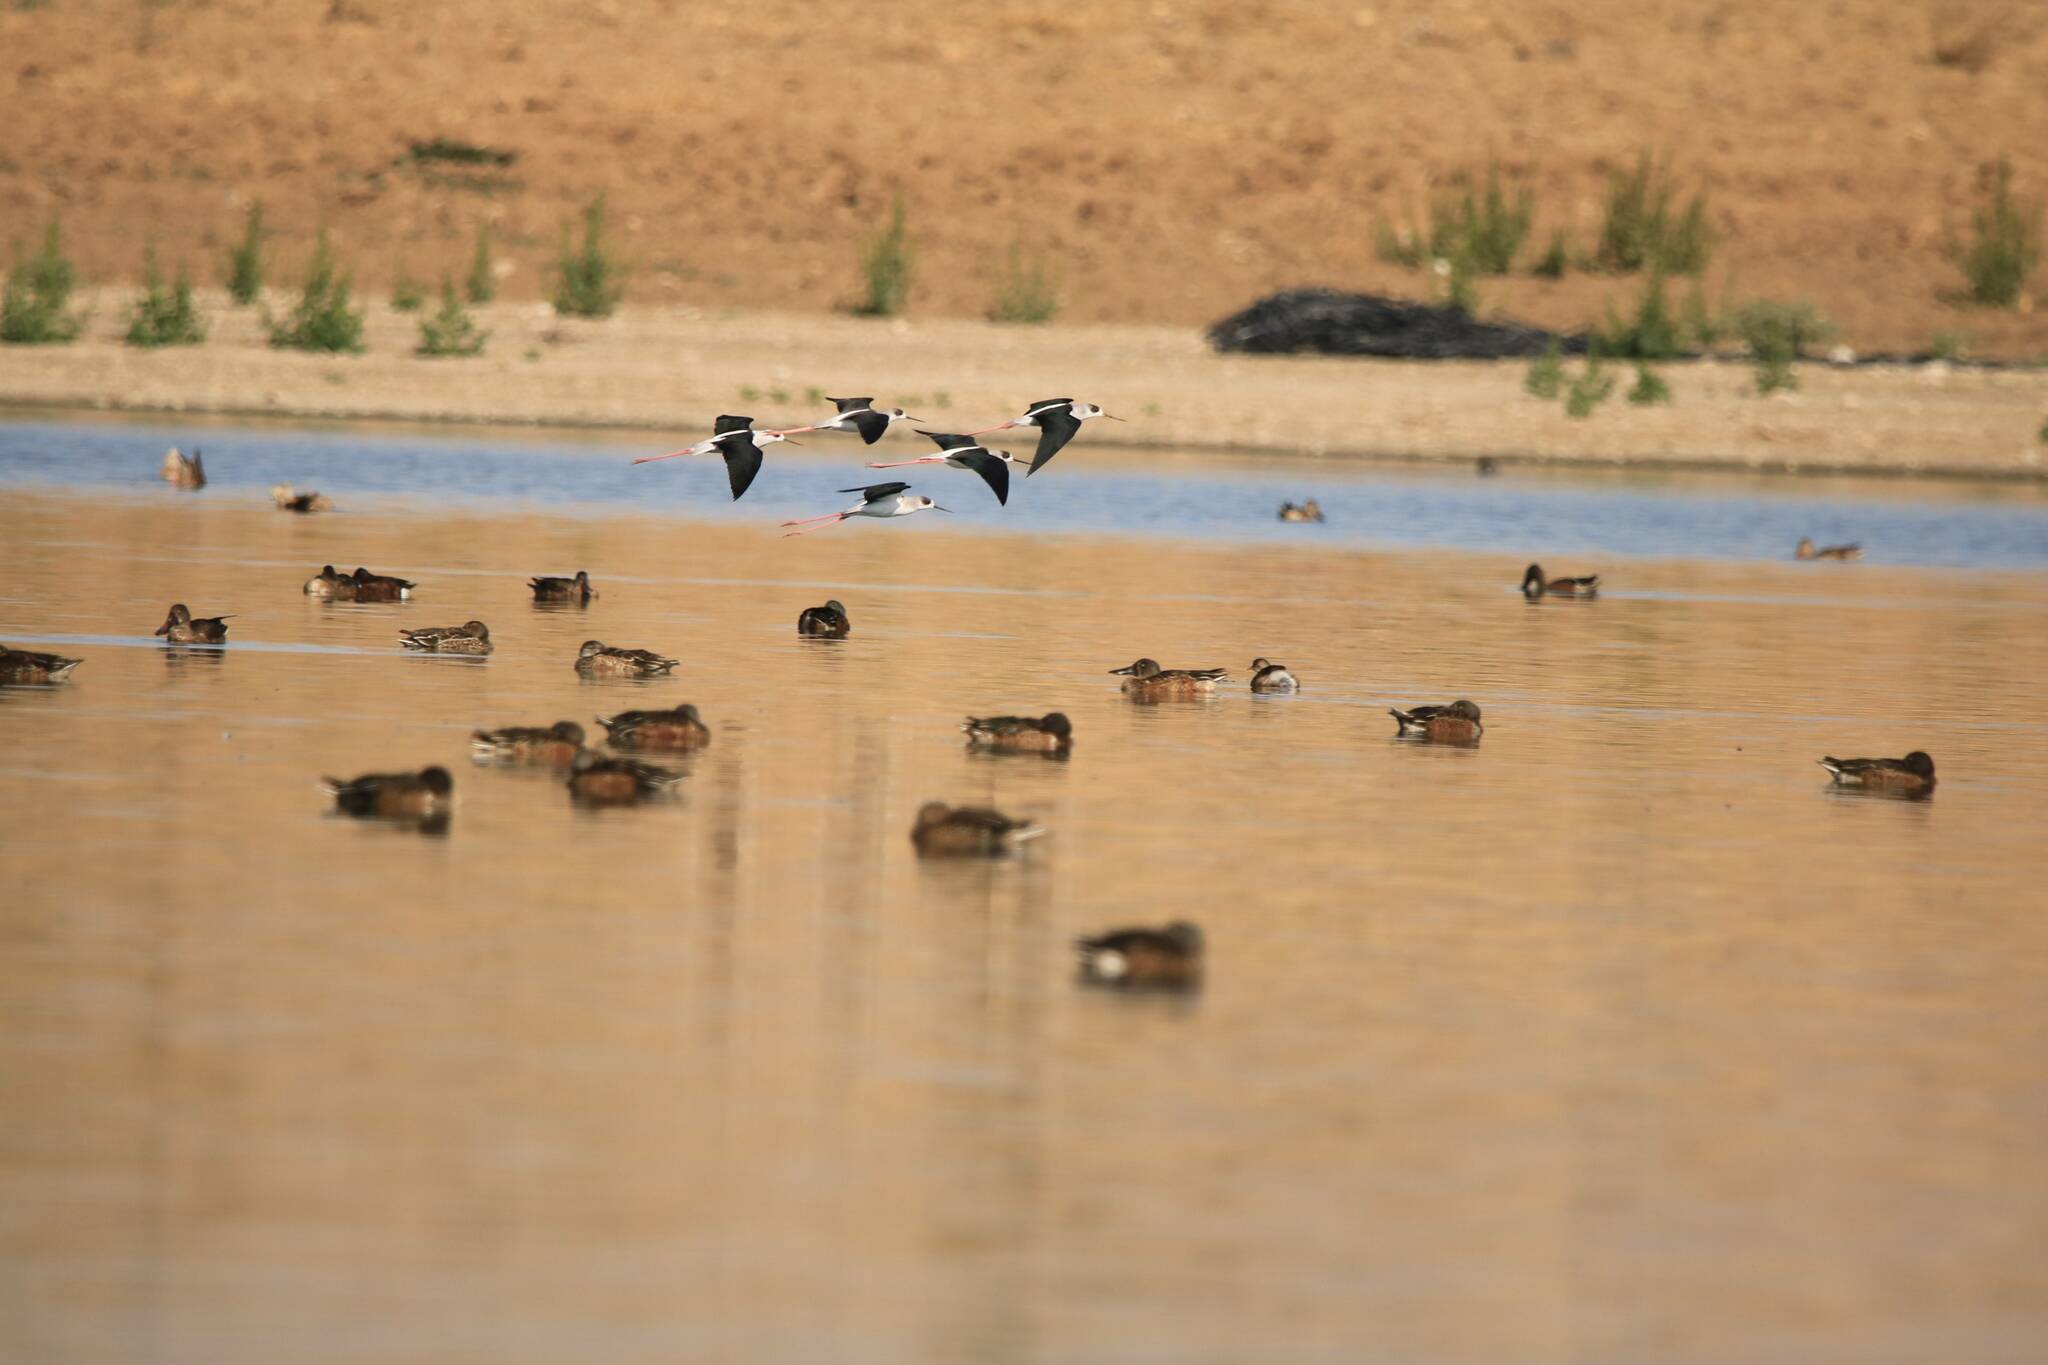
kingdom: Animalia
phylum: Chordata
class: Aves
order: Anseriformes
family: Anatidae
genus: Spatula
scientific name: Spatula clypeata
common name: Northern shoveler
